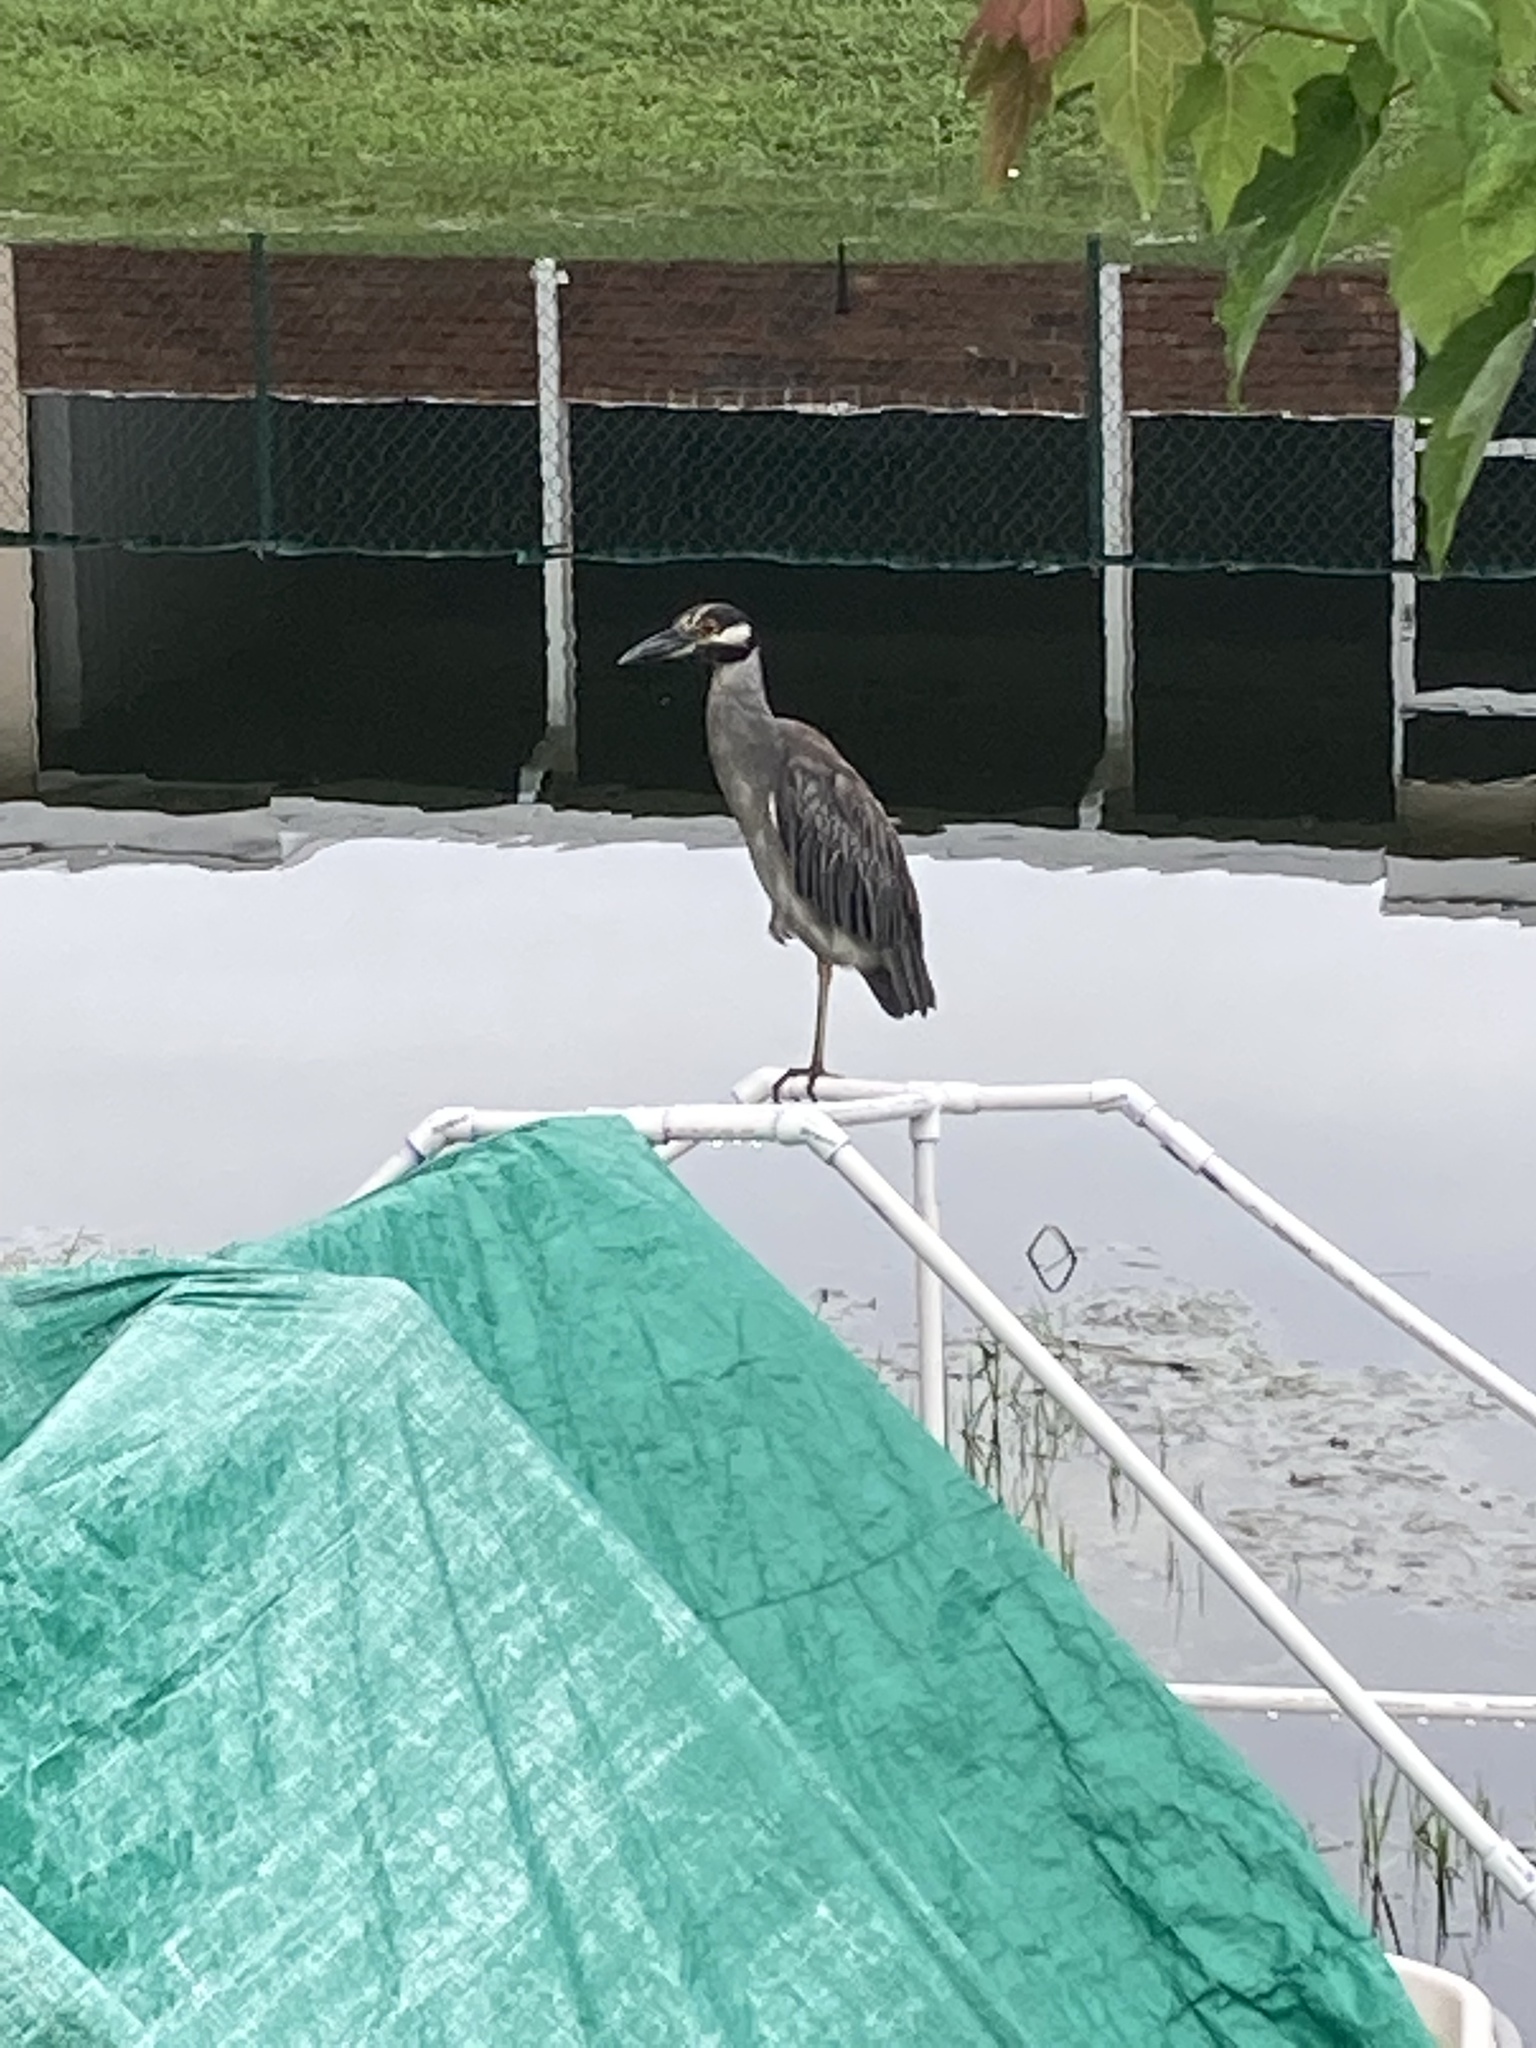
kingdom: Animalia
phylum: Chordata
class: Aves
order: Pelecaniformes
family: Ardeidae
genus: Nyctanassa
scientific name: Nyctanassa violacea
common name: Yellow-crowned night heron
